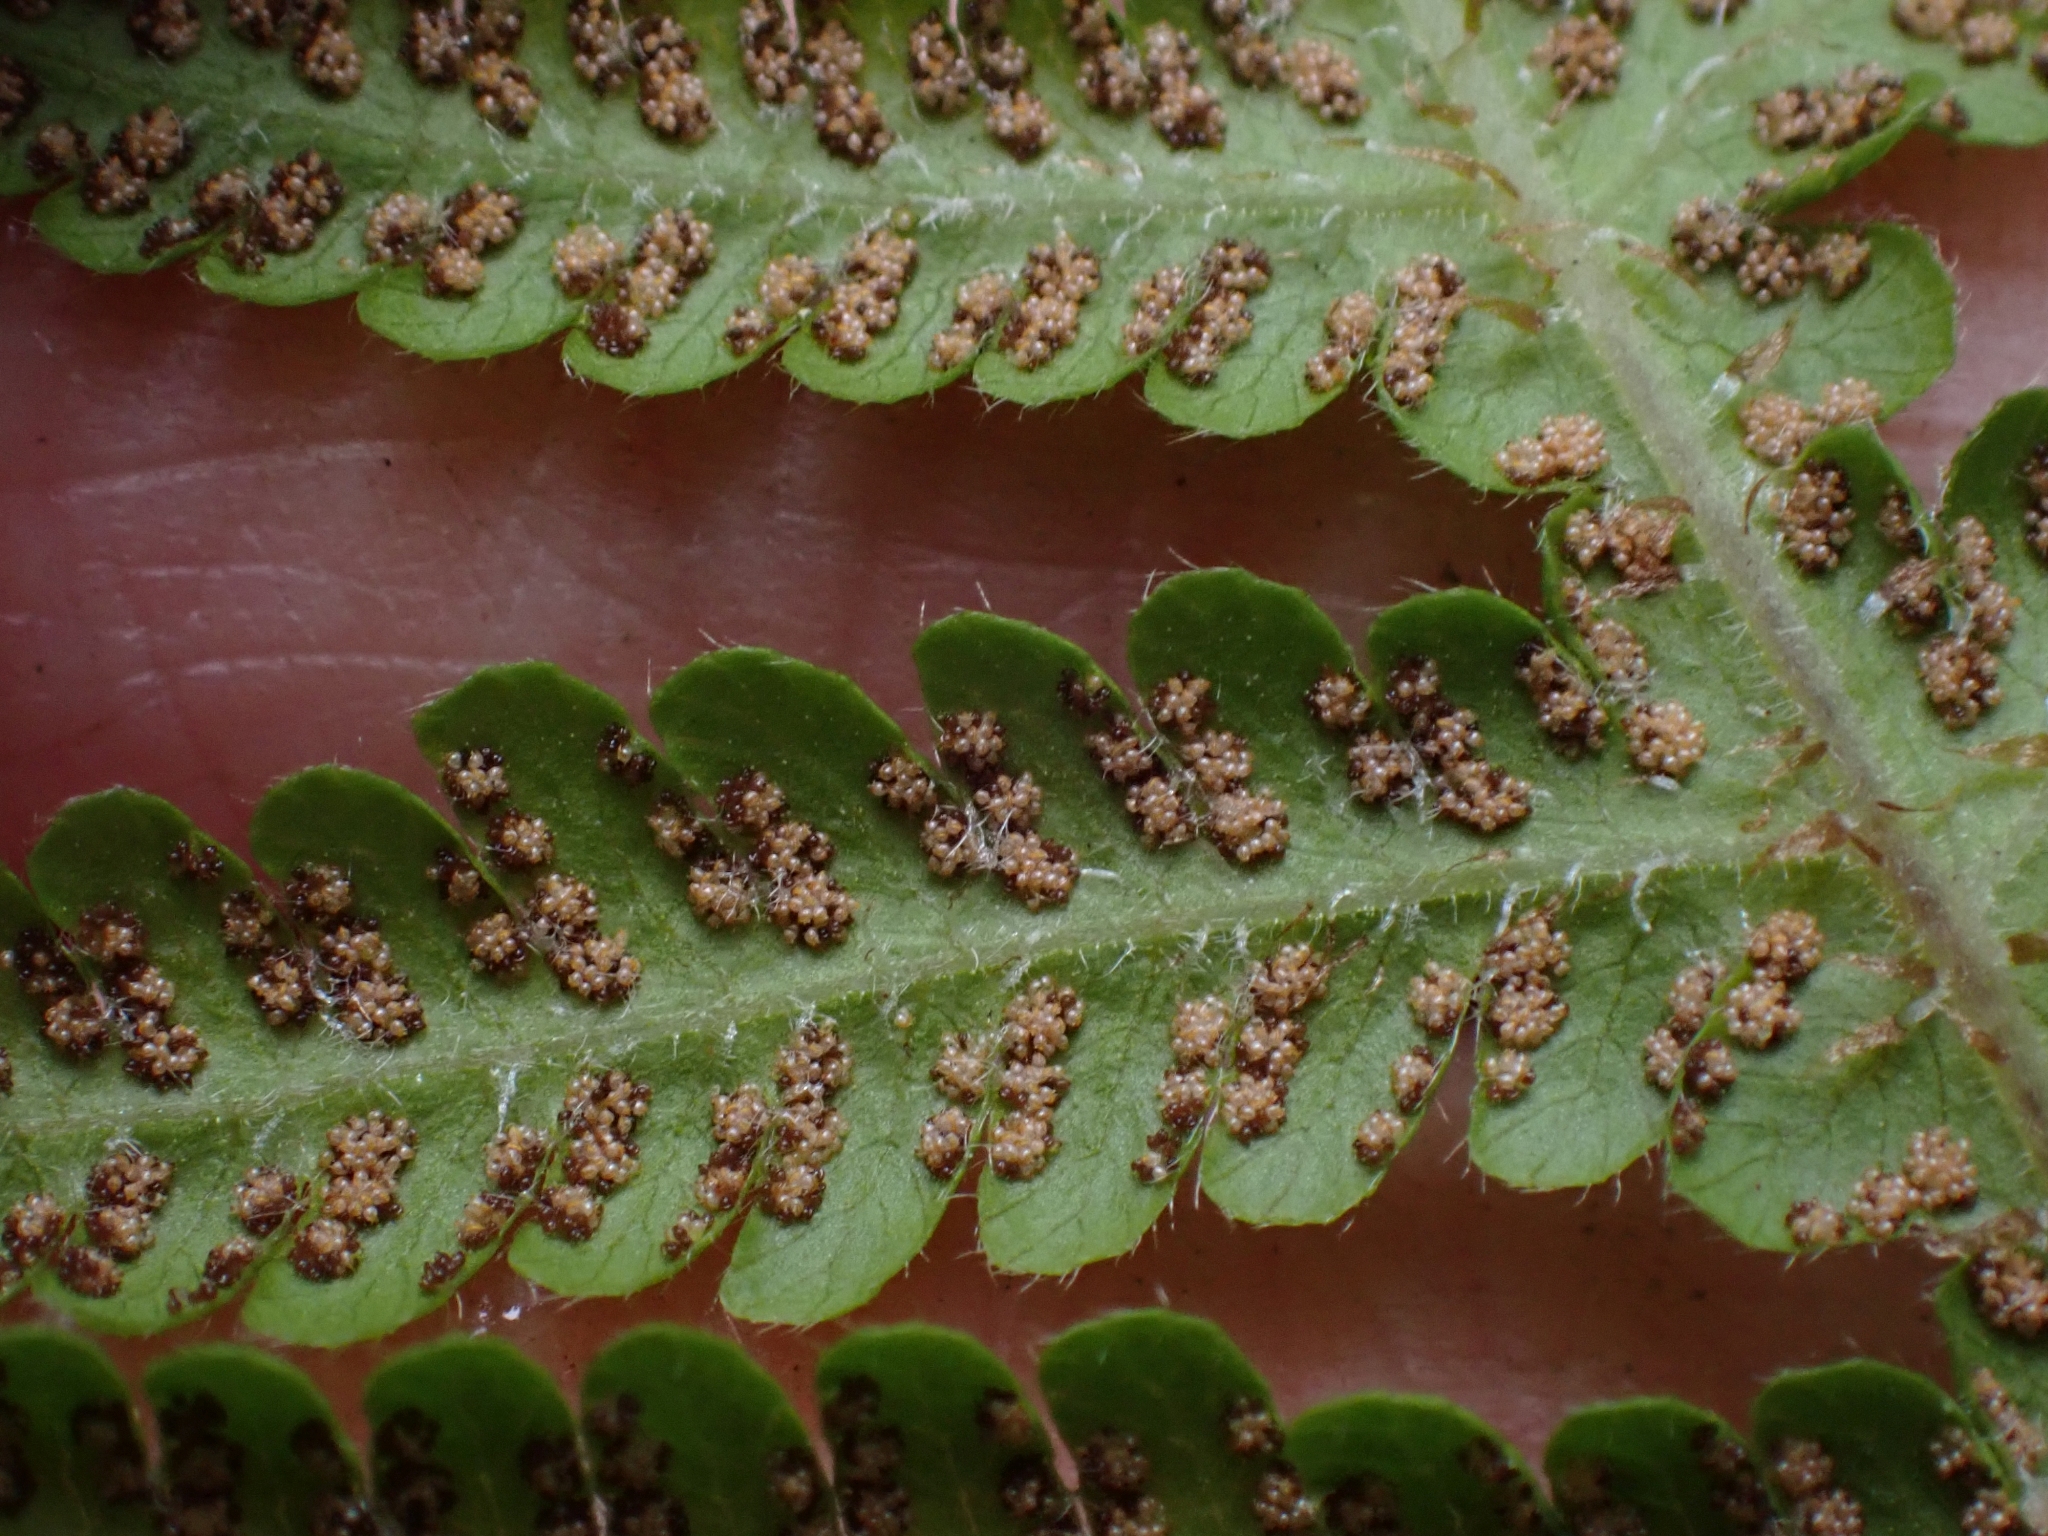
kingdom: Plantae
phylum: Tracheophyta
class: Polypodiopsida
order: Polypodiales
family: Thelypteridaceae
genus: Phegopteris
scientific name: Phegopteris connectilis
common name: Beech fern
